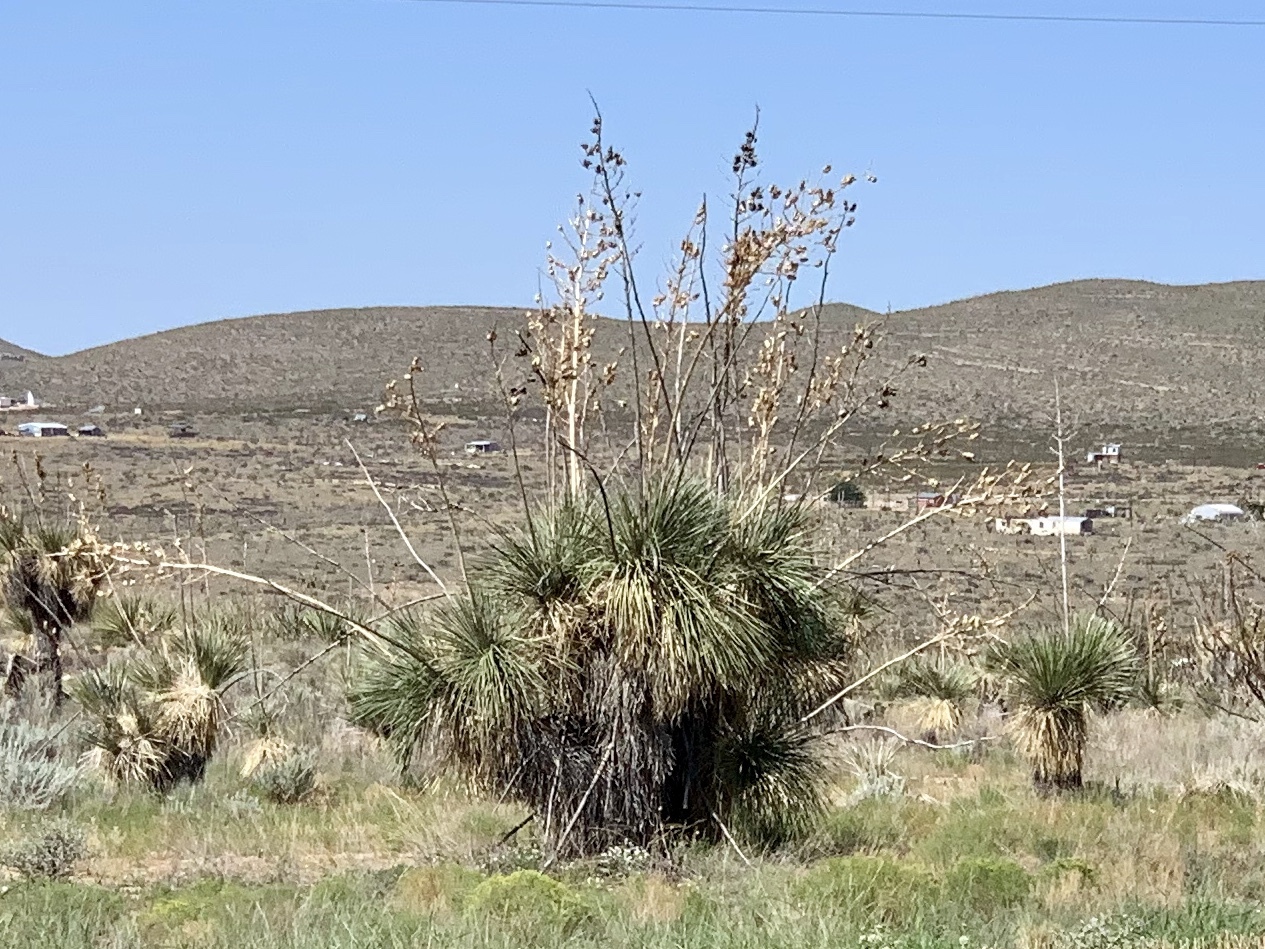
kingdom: Plantae
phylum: Tracheophyta
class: Liliopsida
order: Asparagales
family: Asparagaceae
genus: Yucca
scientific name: Yucca elata
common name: Palmella
